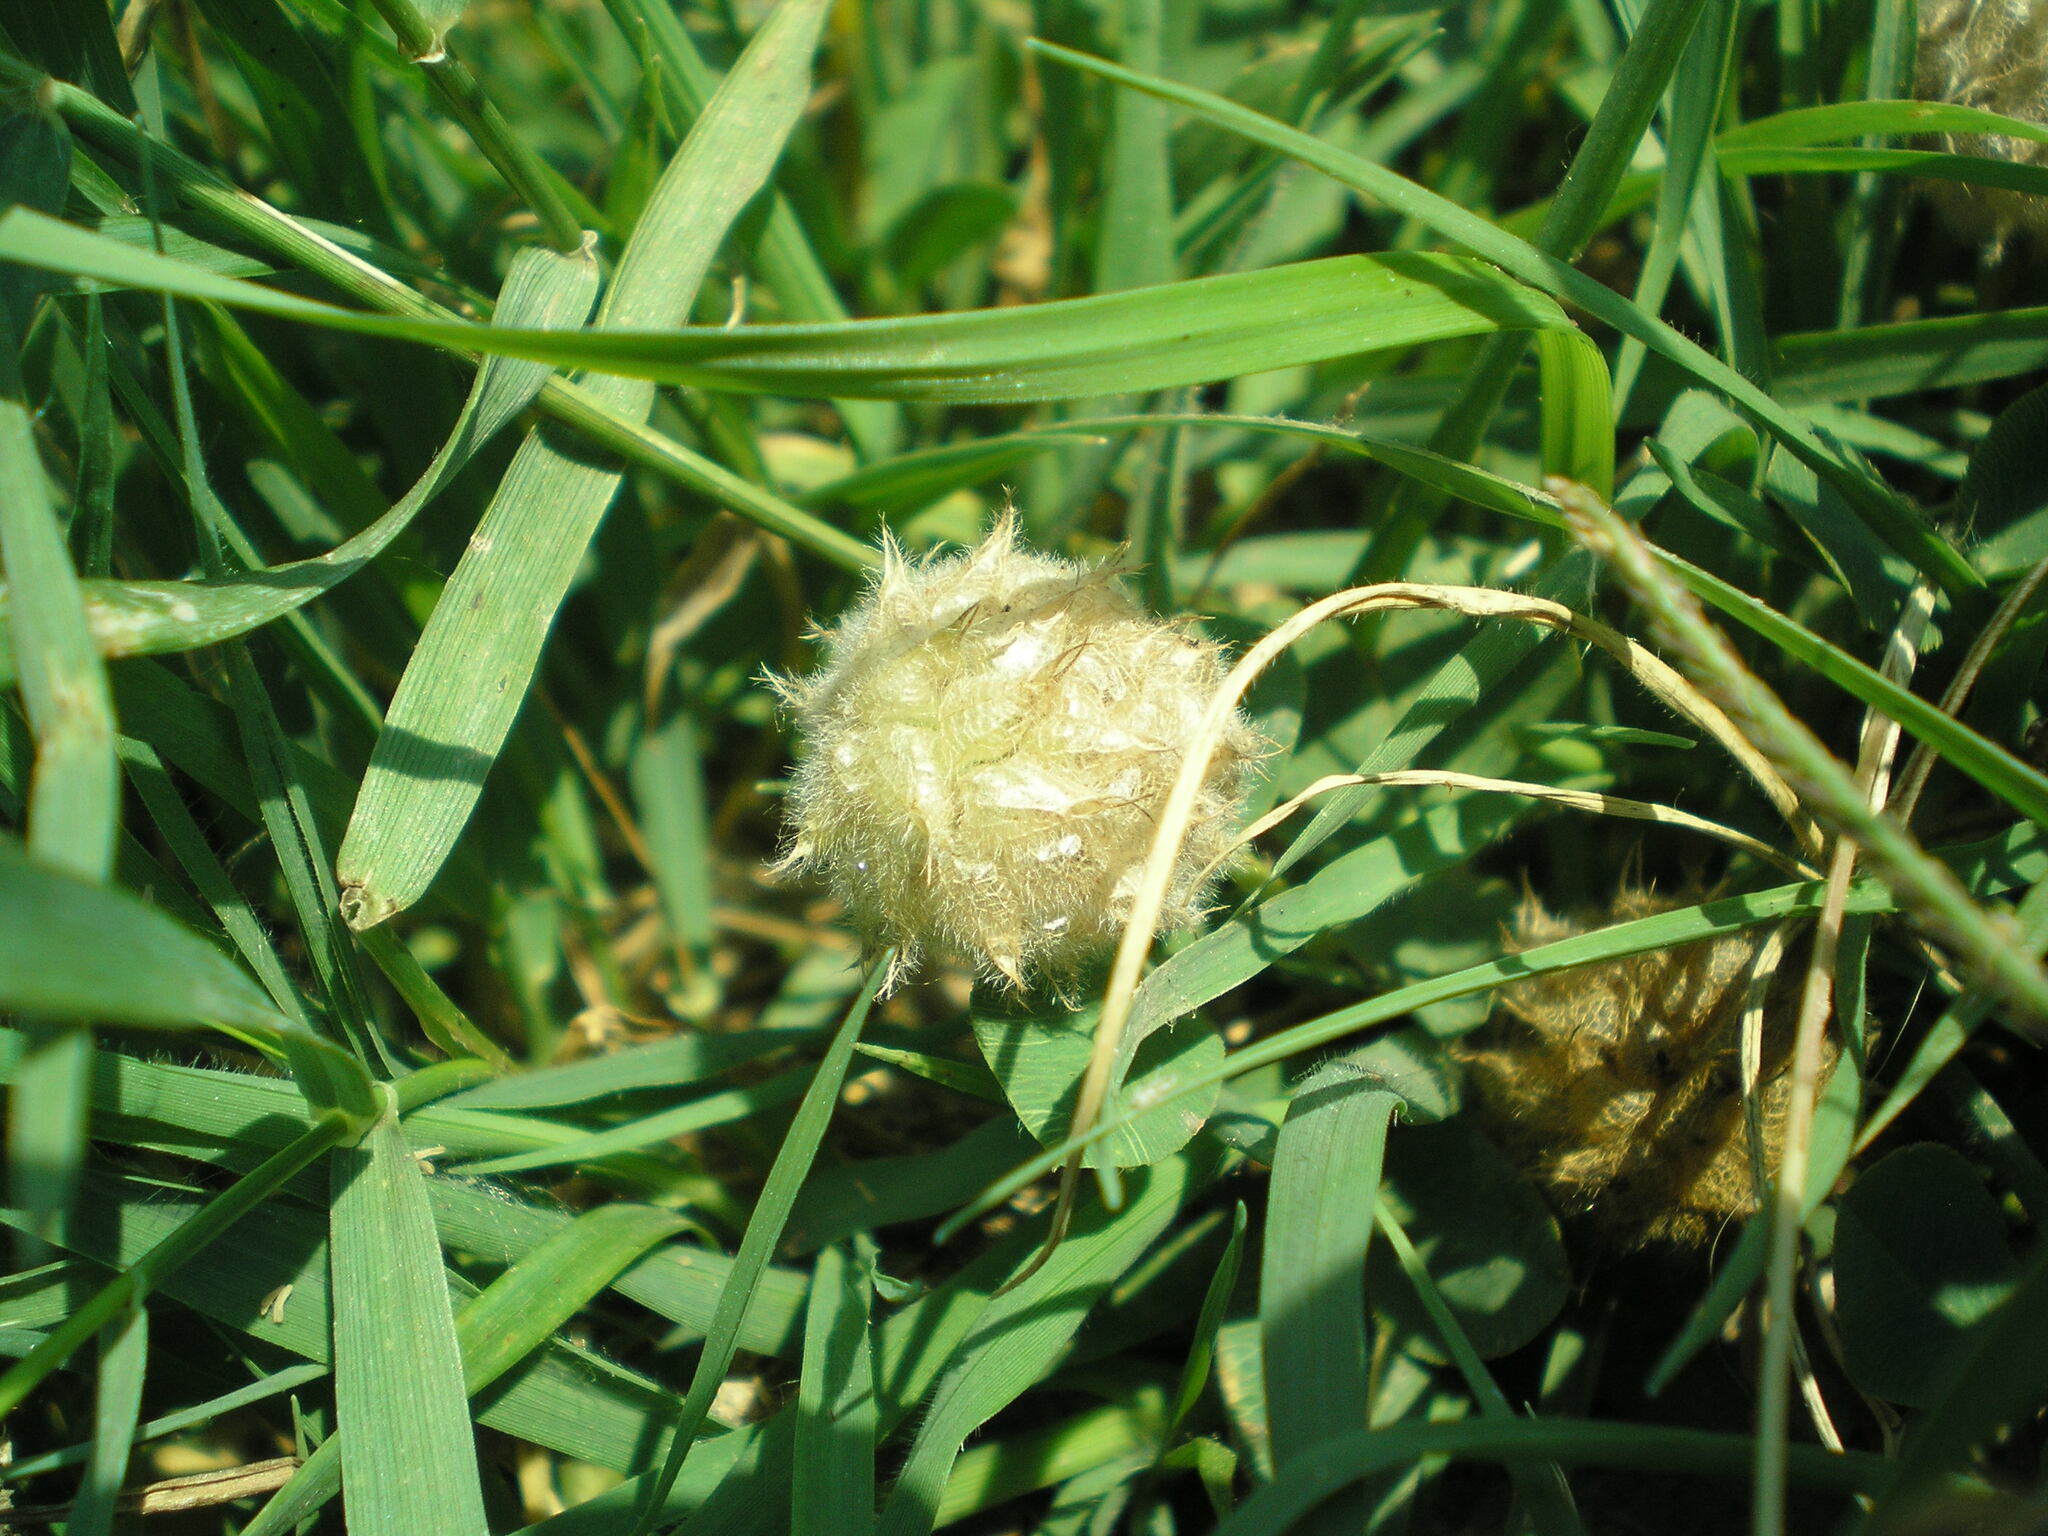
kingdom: Plantae
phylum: Tracheophyta
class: Magnoliopsida
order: Fabales
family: Fabaceae
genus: Trifolium
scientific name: Trifolium fragiferum
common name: Strawberry clover
